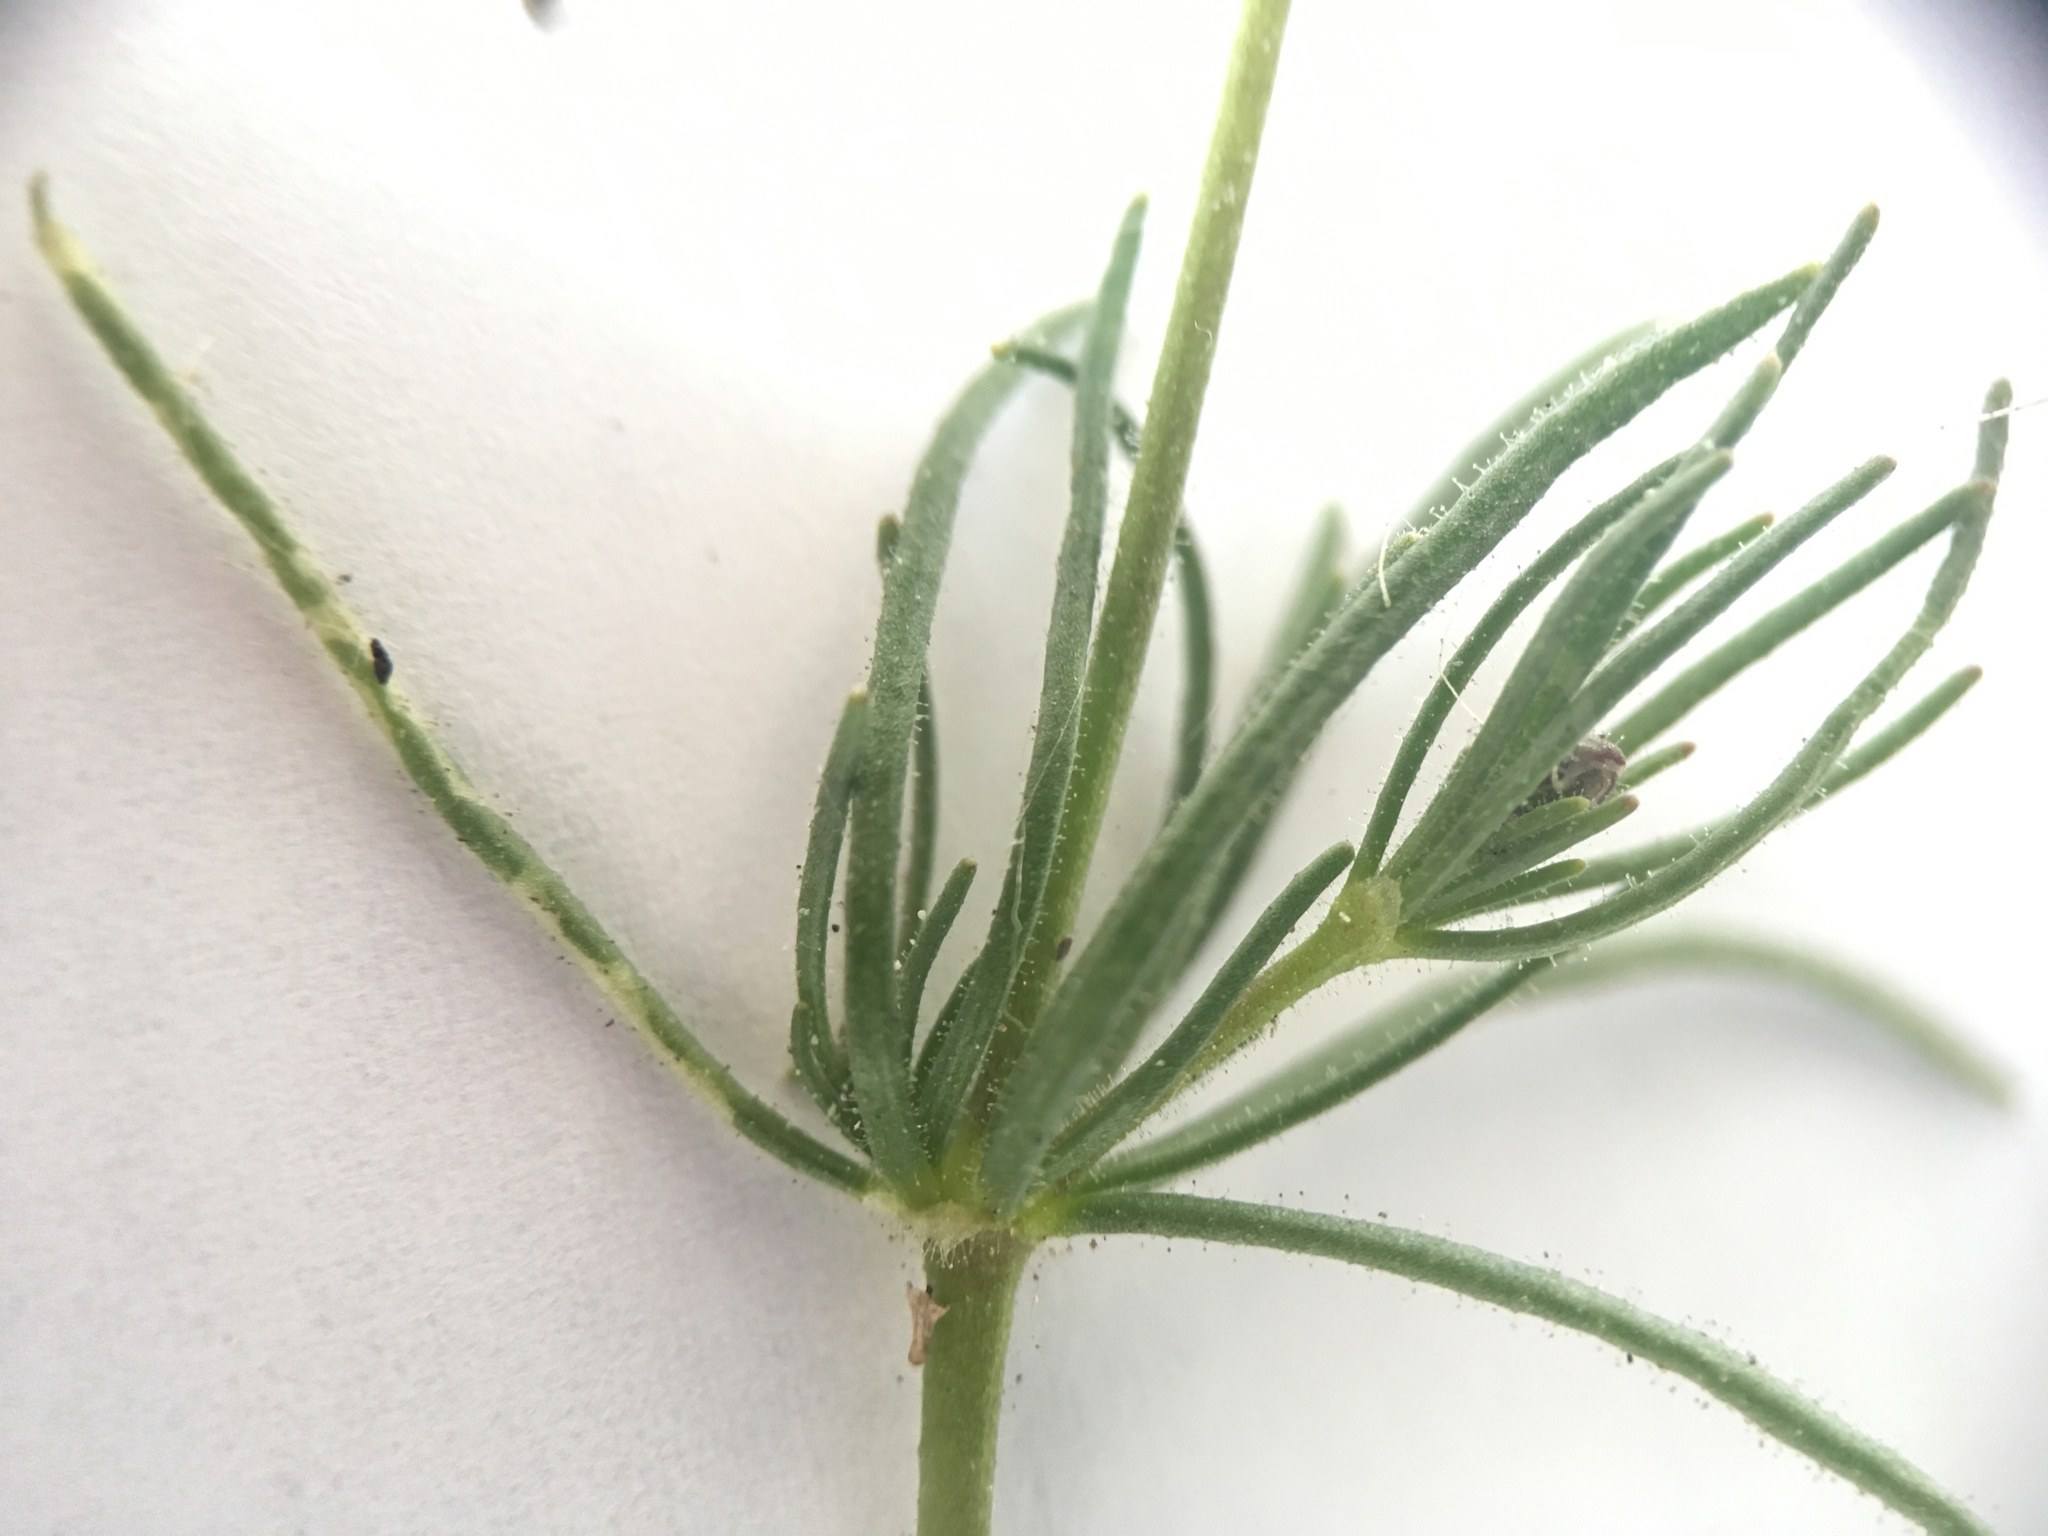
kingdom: Plantae
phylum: Tracheophyta
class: Magnoliopsida
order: Caryophyllales
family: Caryophyllaceae
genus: Spergula
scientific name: Spergula arvensis
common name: Corn spurrey
